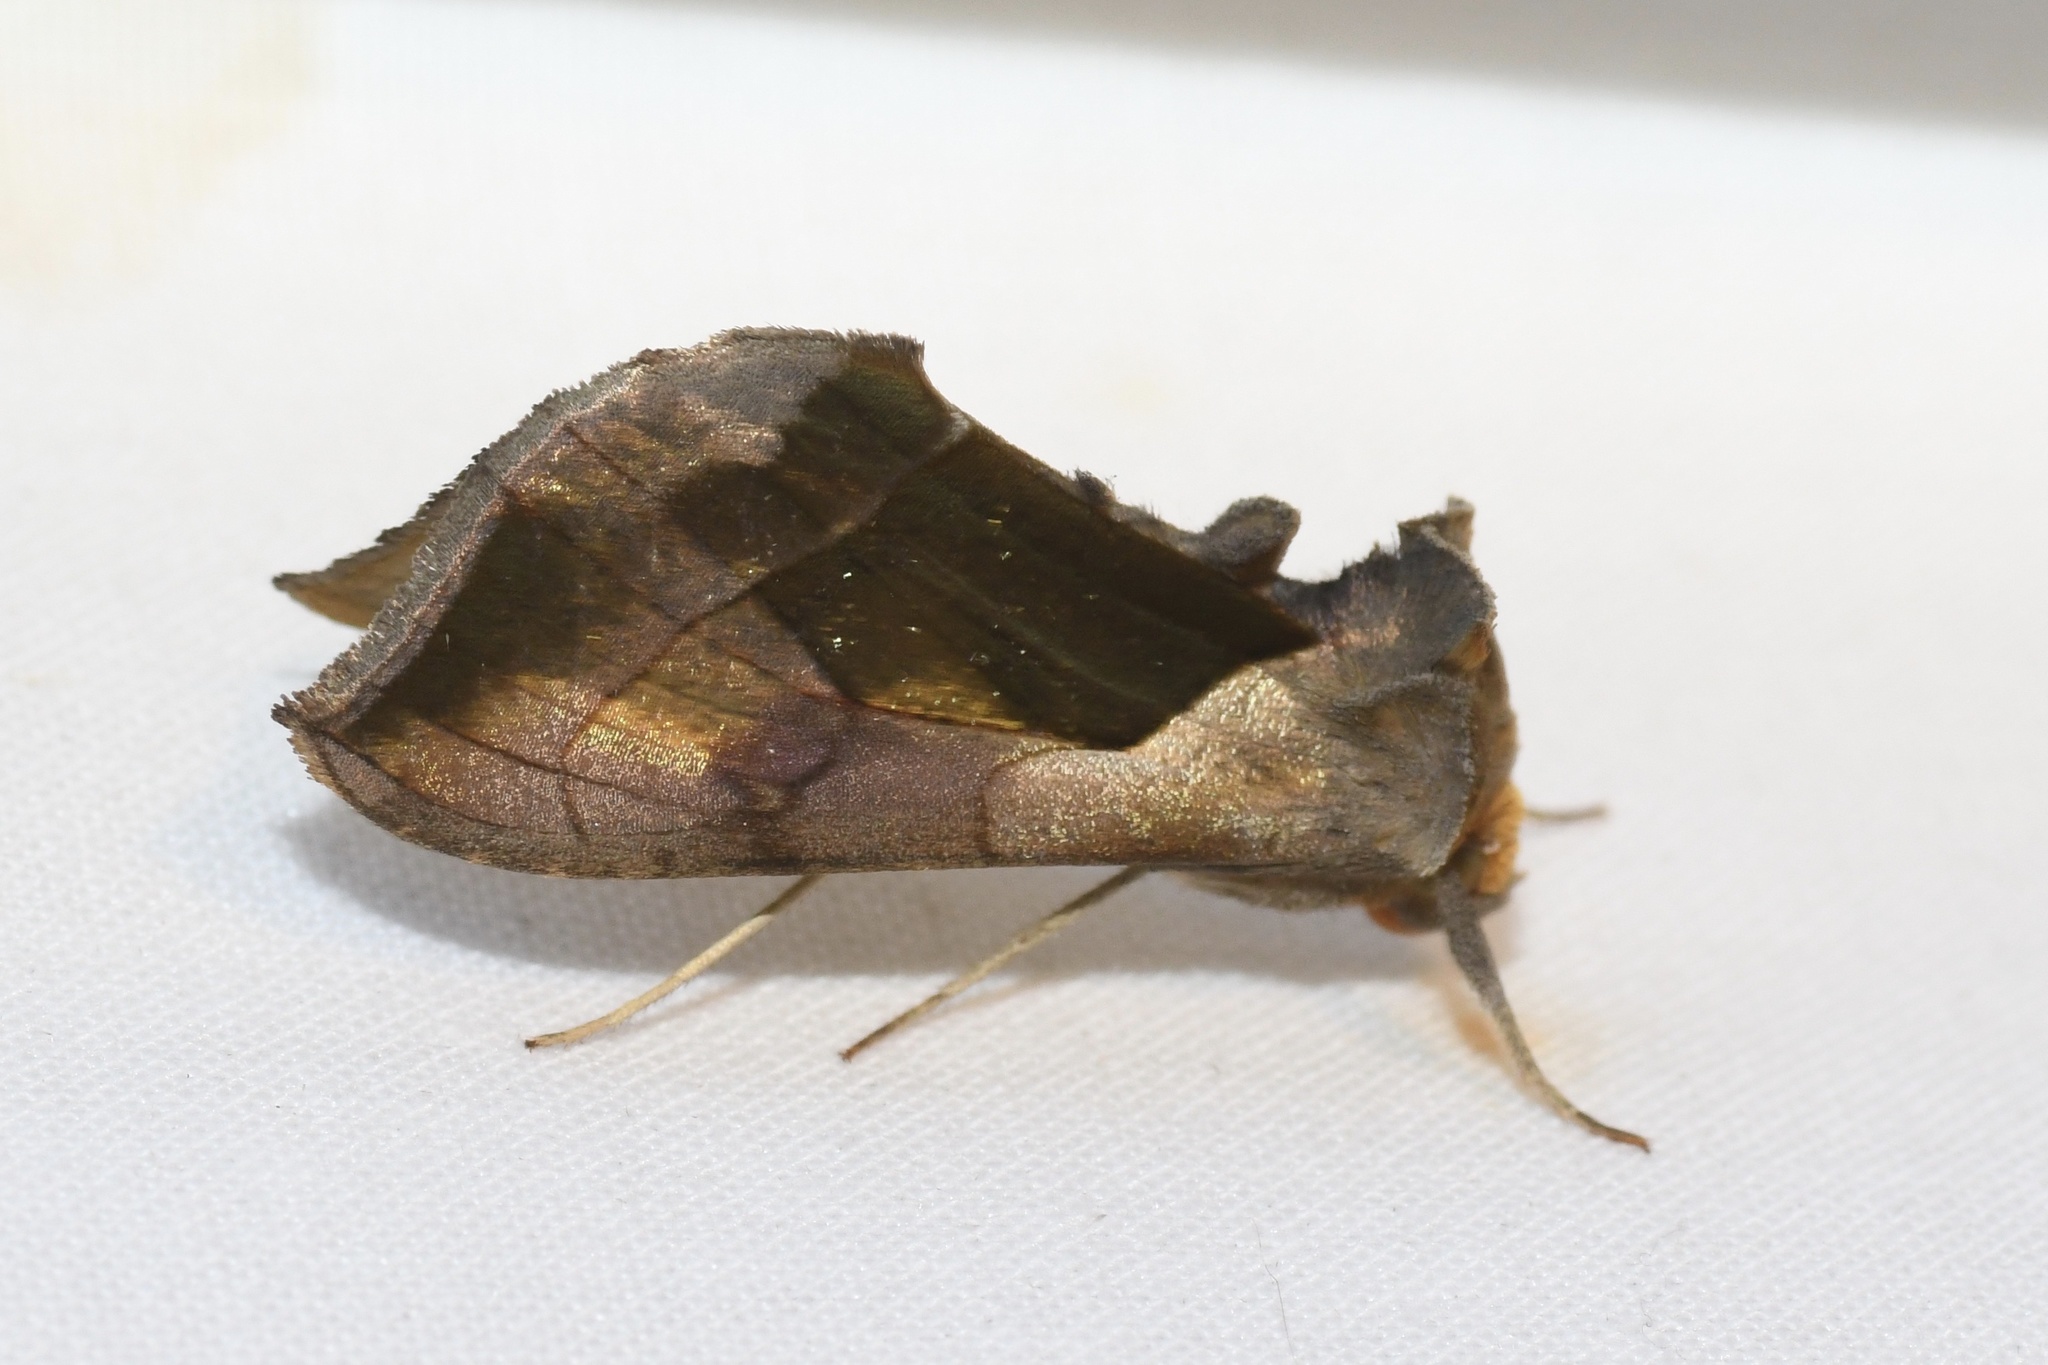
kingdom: Animalia
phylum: Arthropoda
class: Insecta
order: Lepidoptera
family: Noctuidae
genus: Diachrysia
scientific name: Diachrysia balluca
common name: Green-patched looper moth
